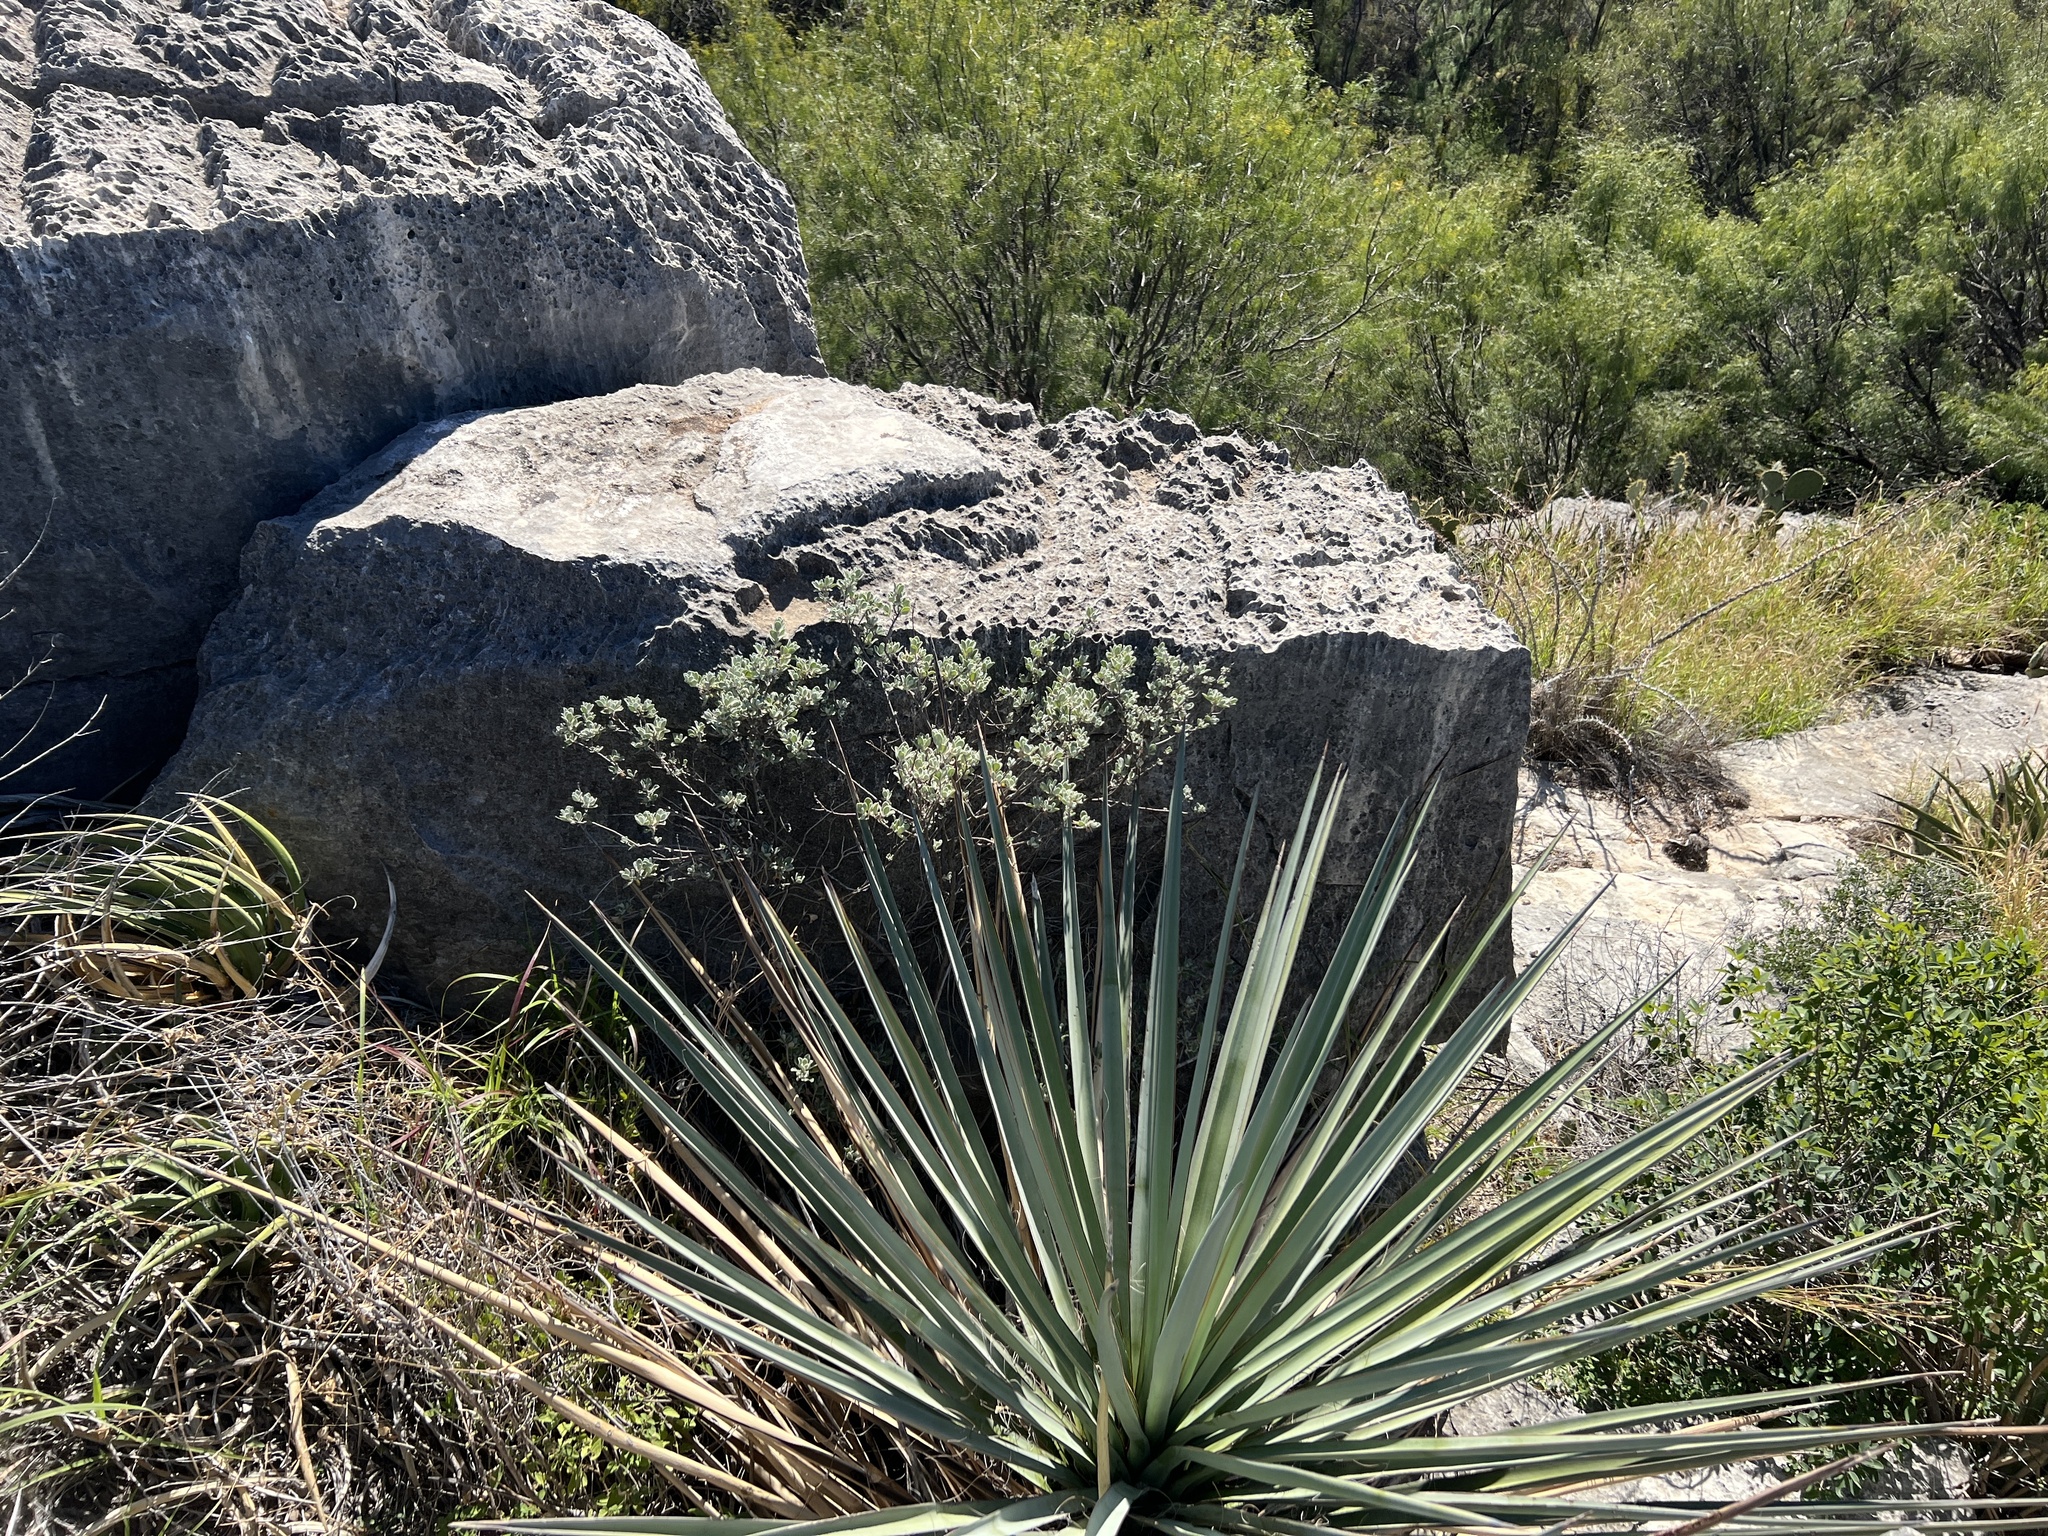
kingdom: Plantae
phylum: Tracheophyta
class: Liliopsida
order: Asparagales
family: Asparagaceae
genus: Yucca
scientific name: Yucca treculiana
